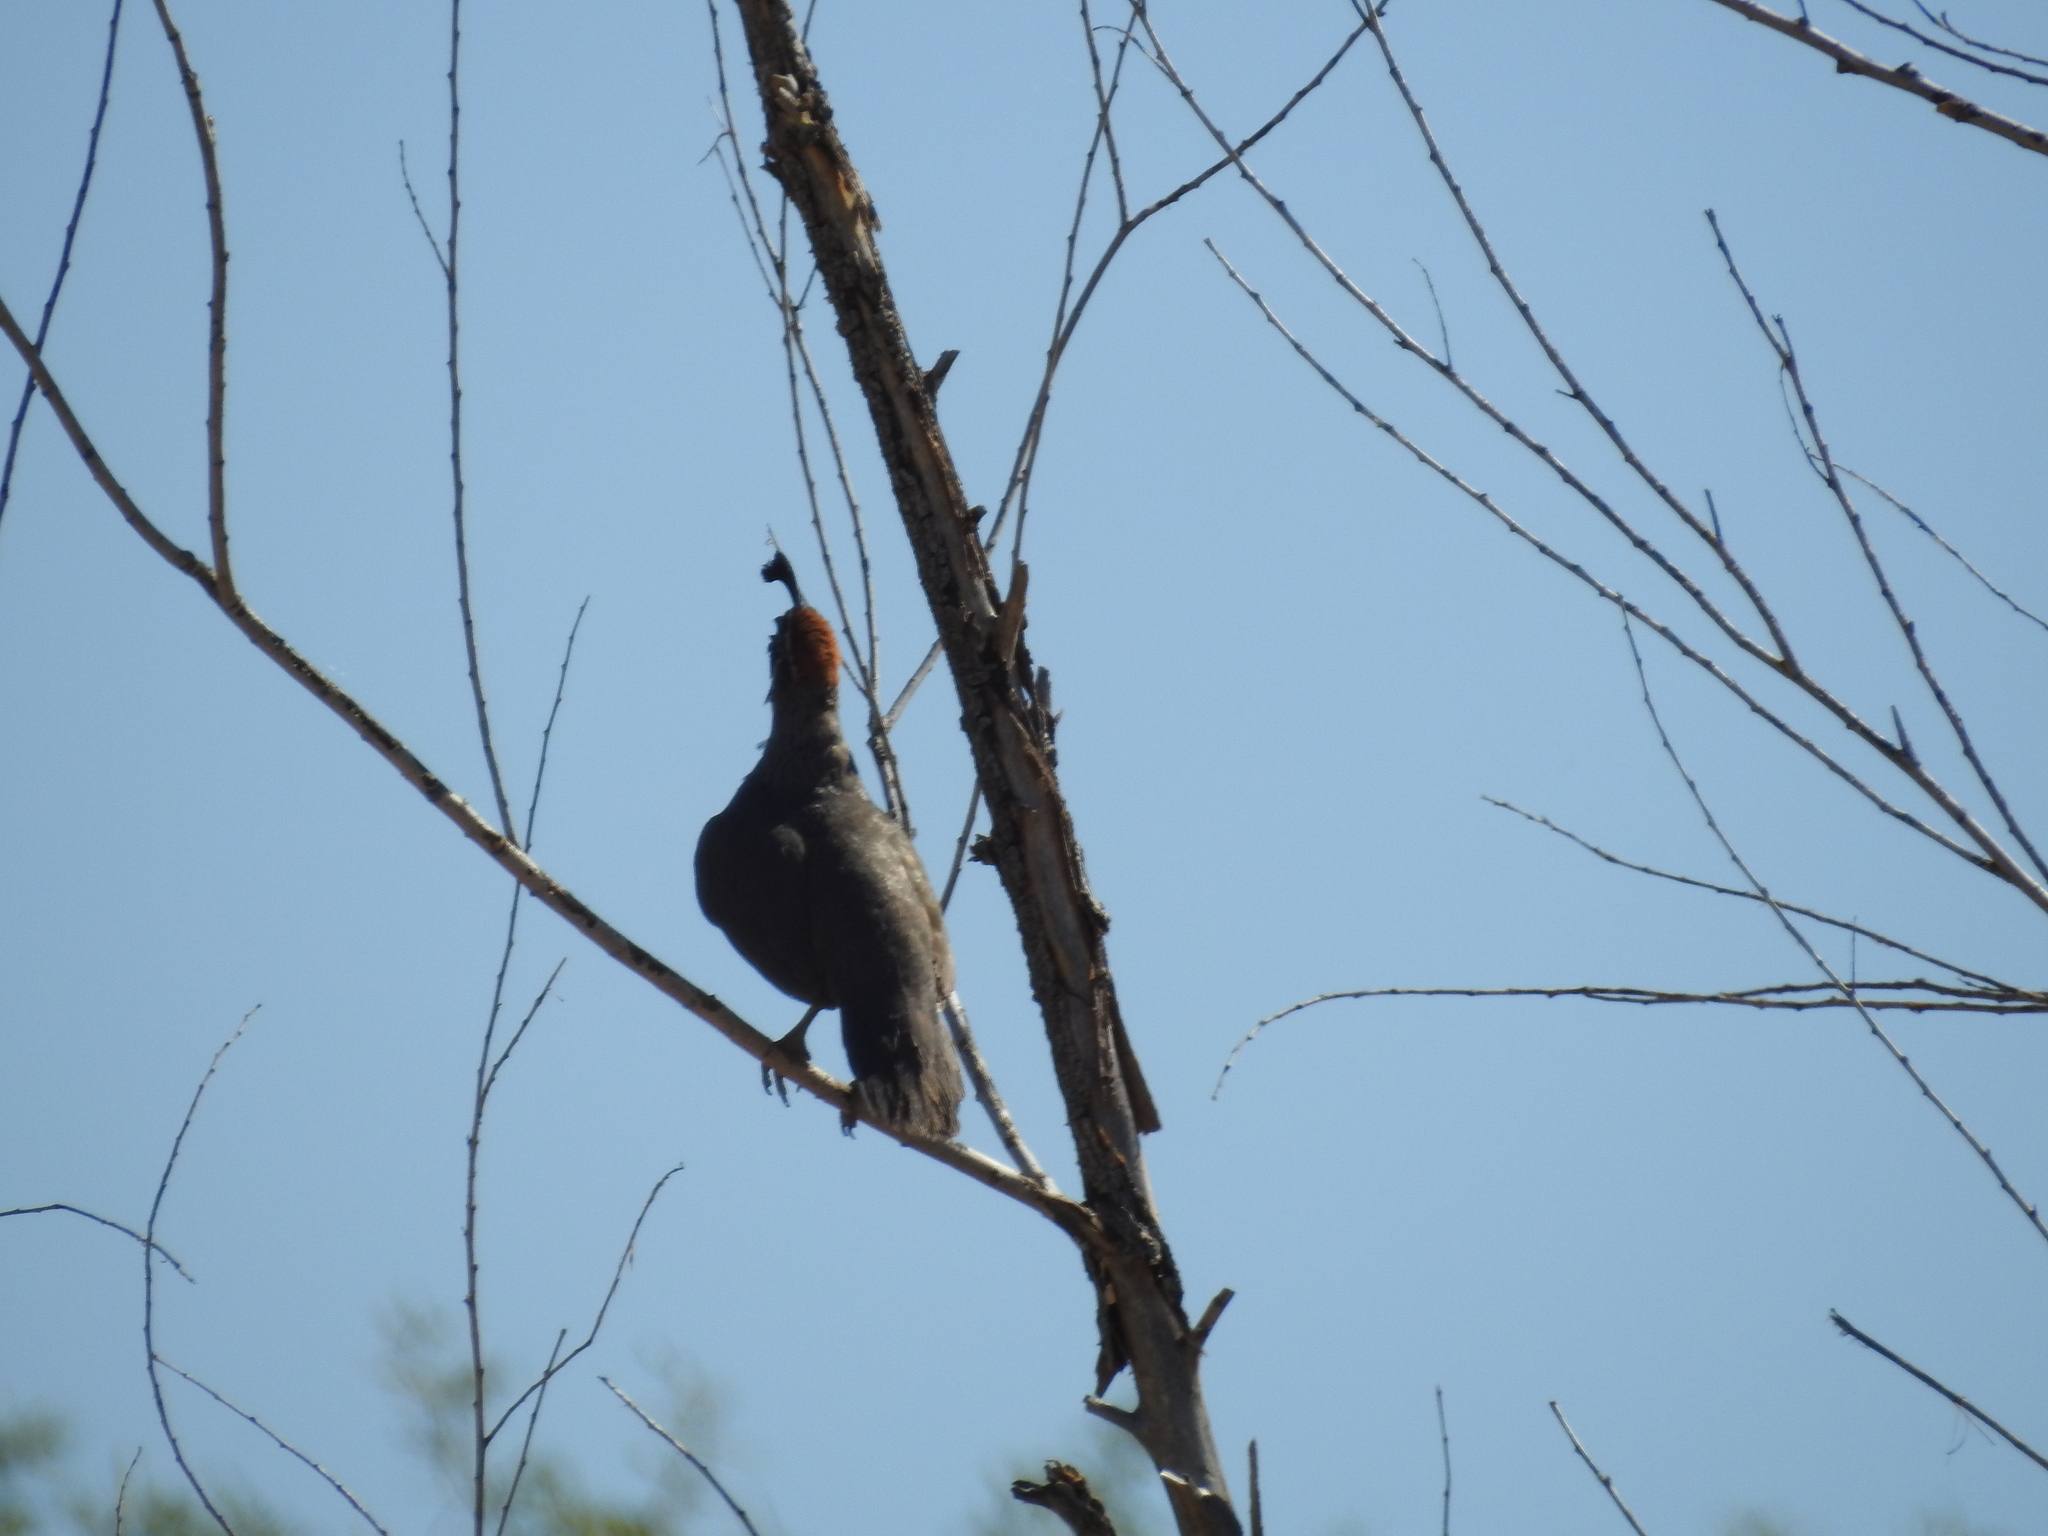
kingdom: Animalia
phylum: Chordata
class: Aves
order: Galliformes
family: Odontophoridae
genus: Callipepla
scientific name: Callipepla gambelii
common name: Gambel's quail
